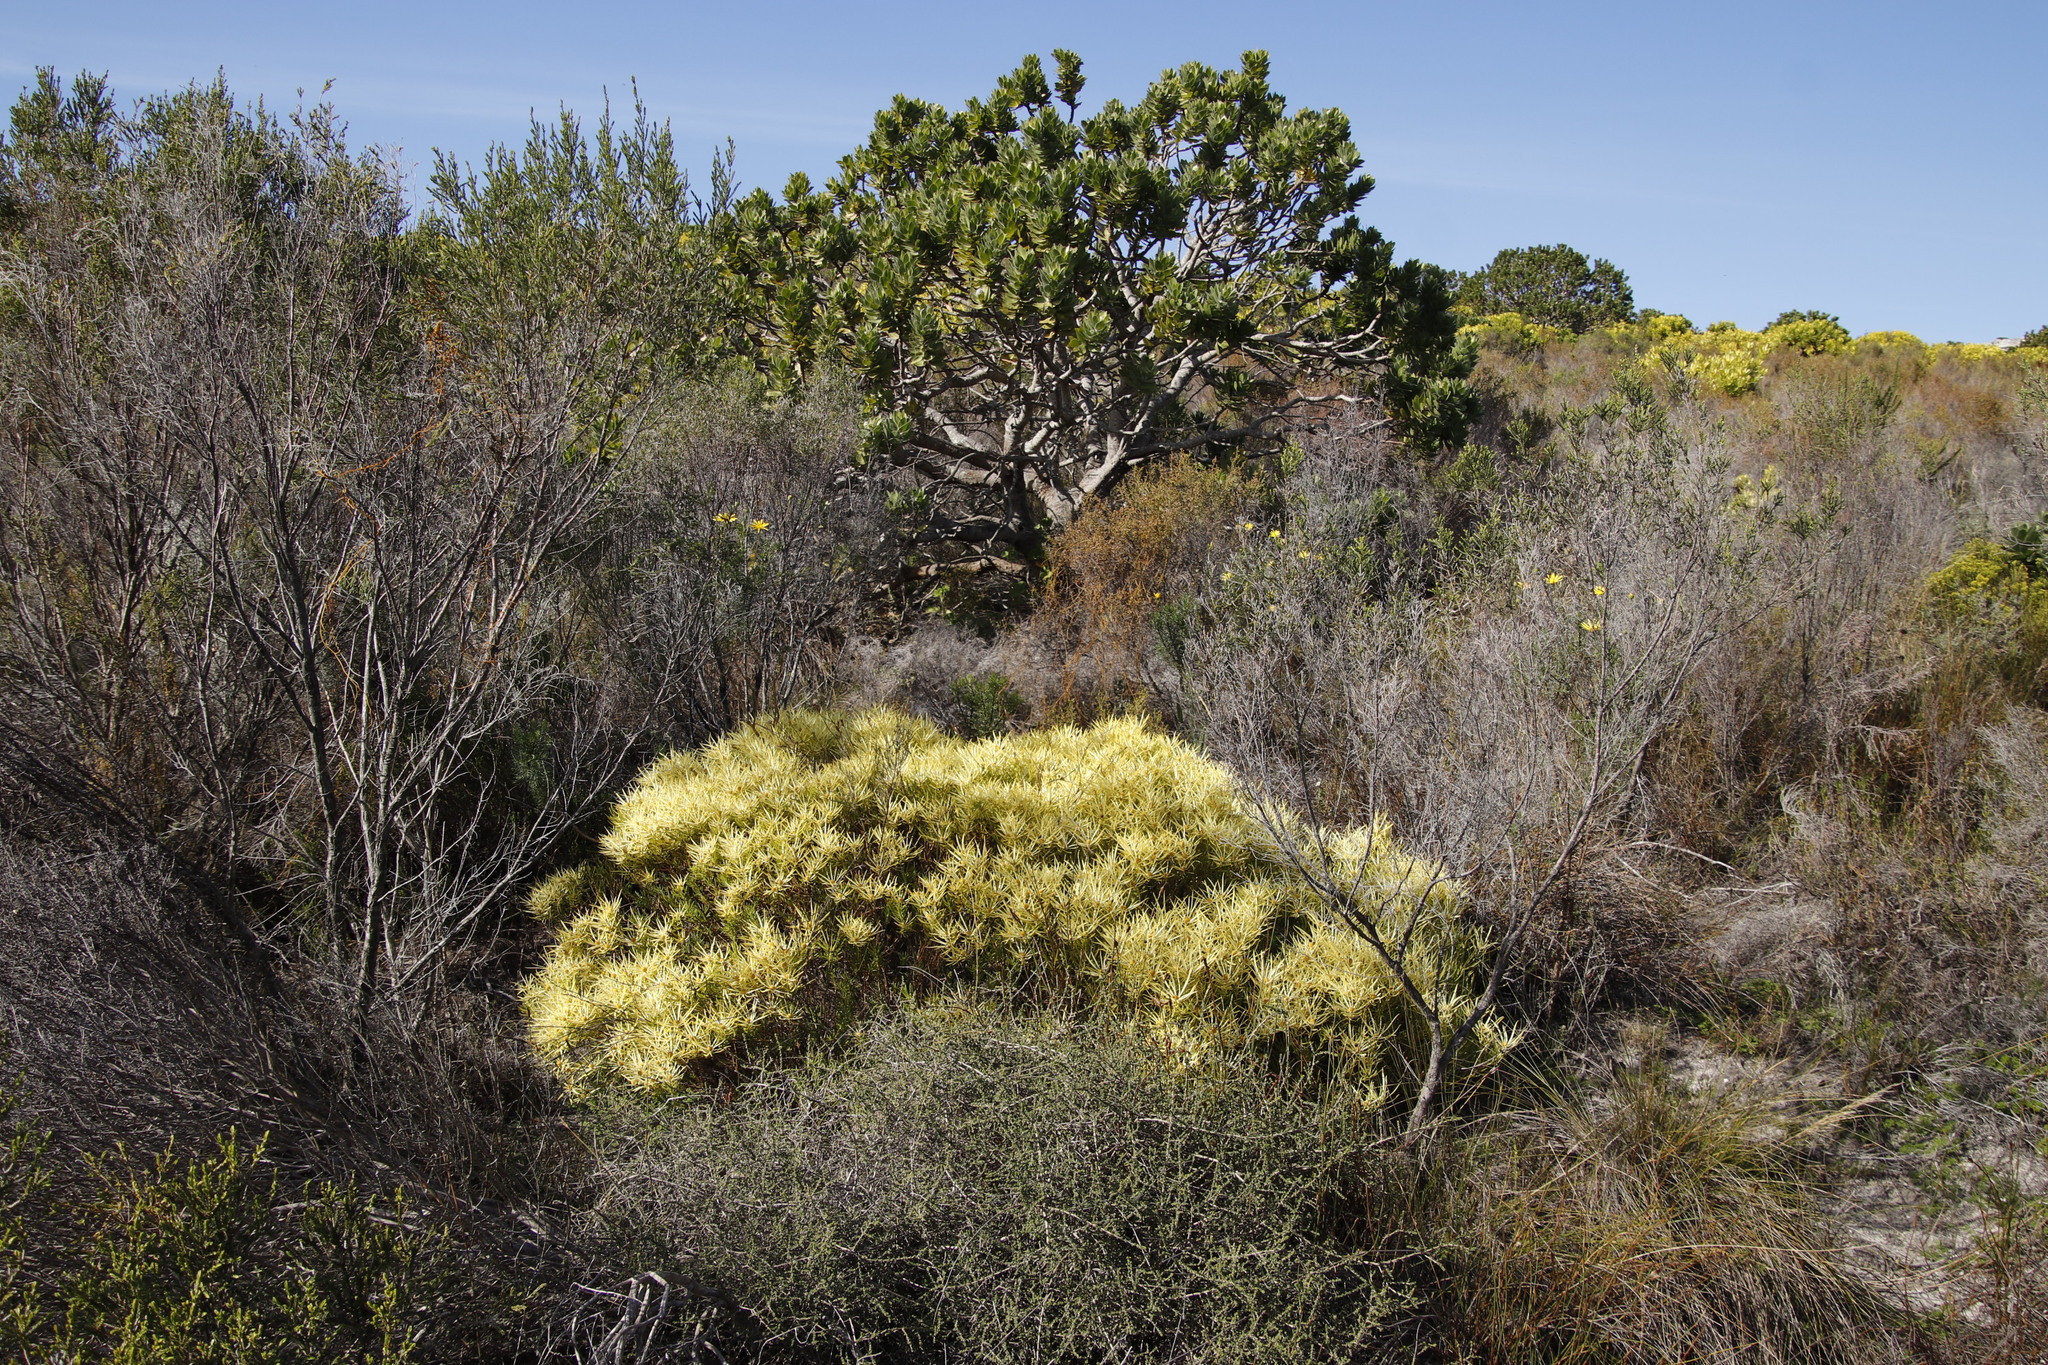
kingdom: Plantae
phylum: Tracheophyta
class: Magnoliopsida
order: Proteales
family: Proteaceae
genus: Leucadendron
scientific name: Leucadendron salignum
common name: Common sunshine conebush
